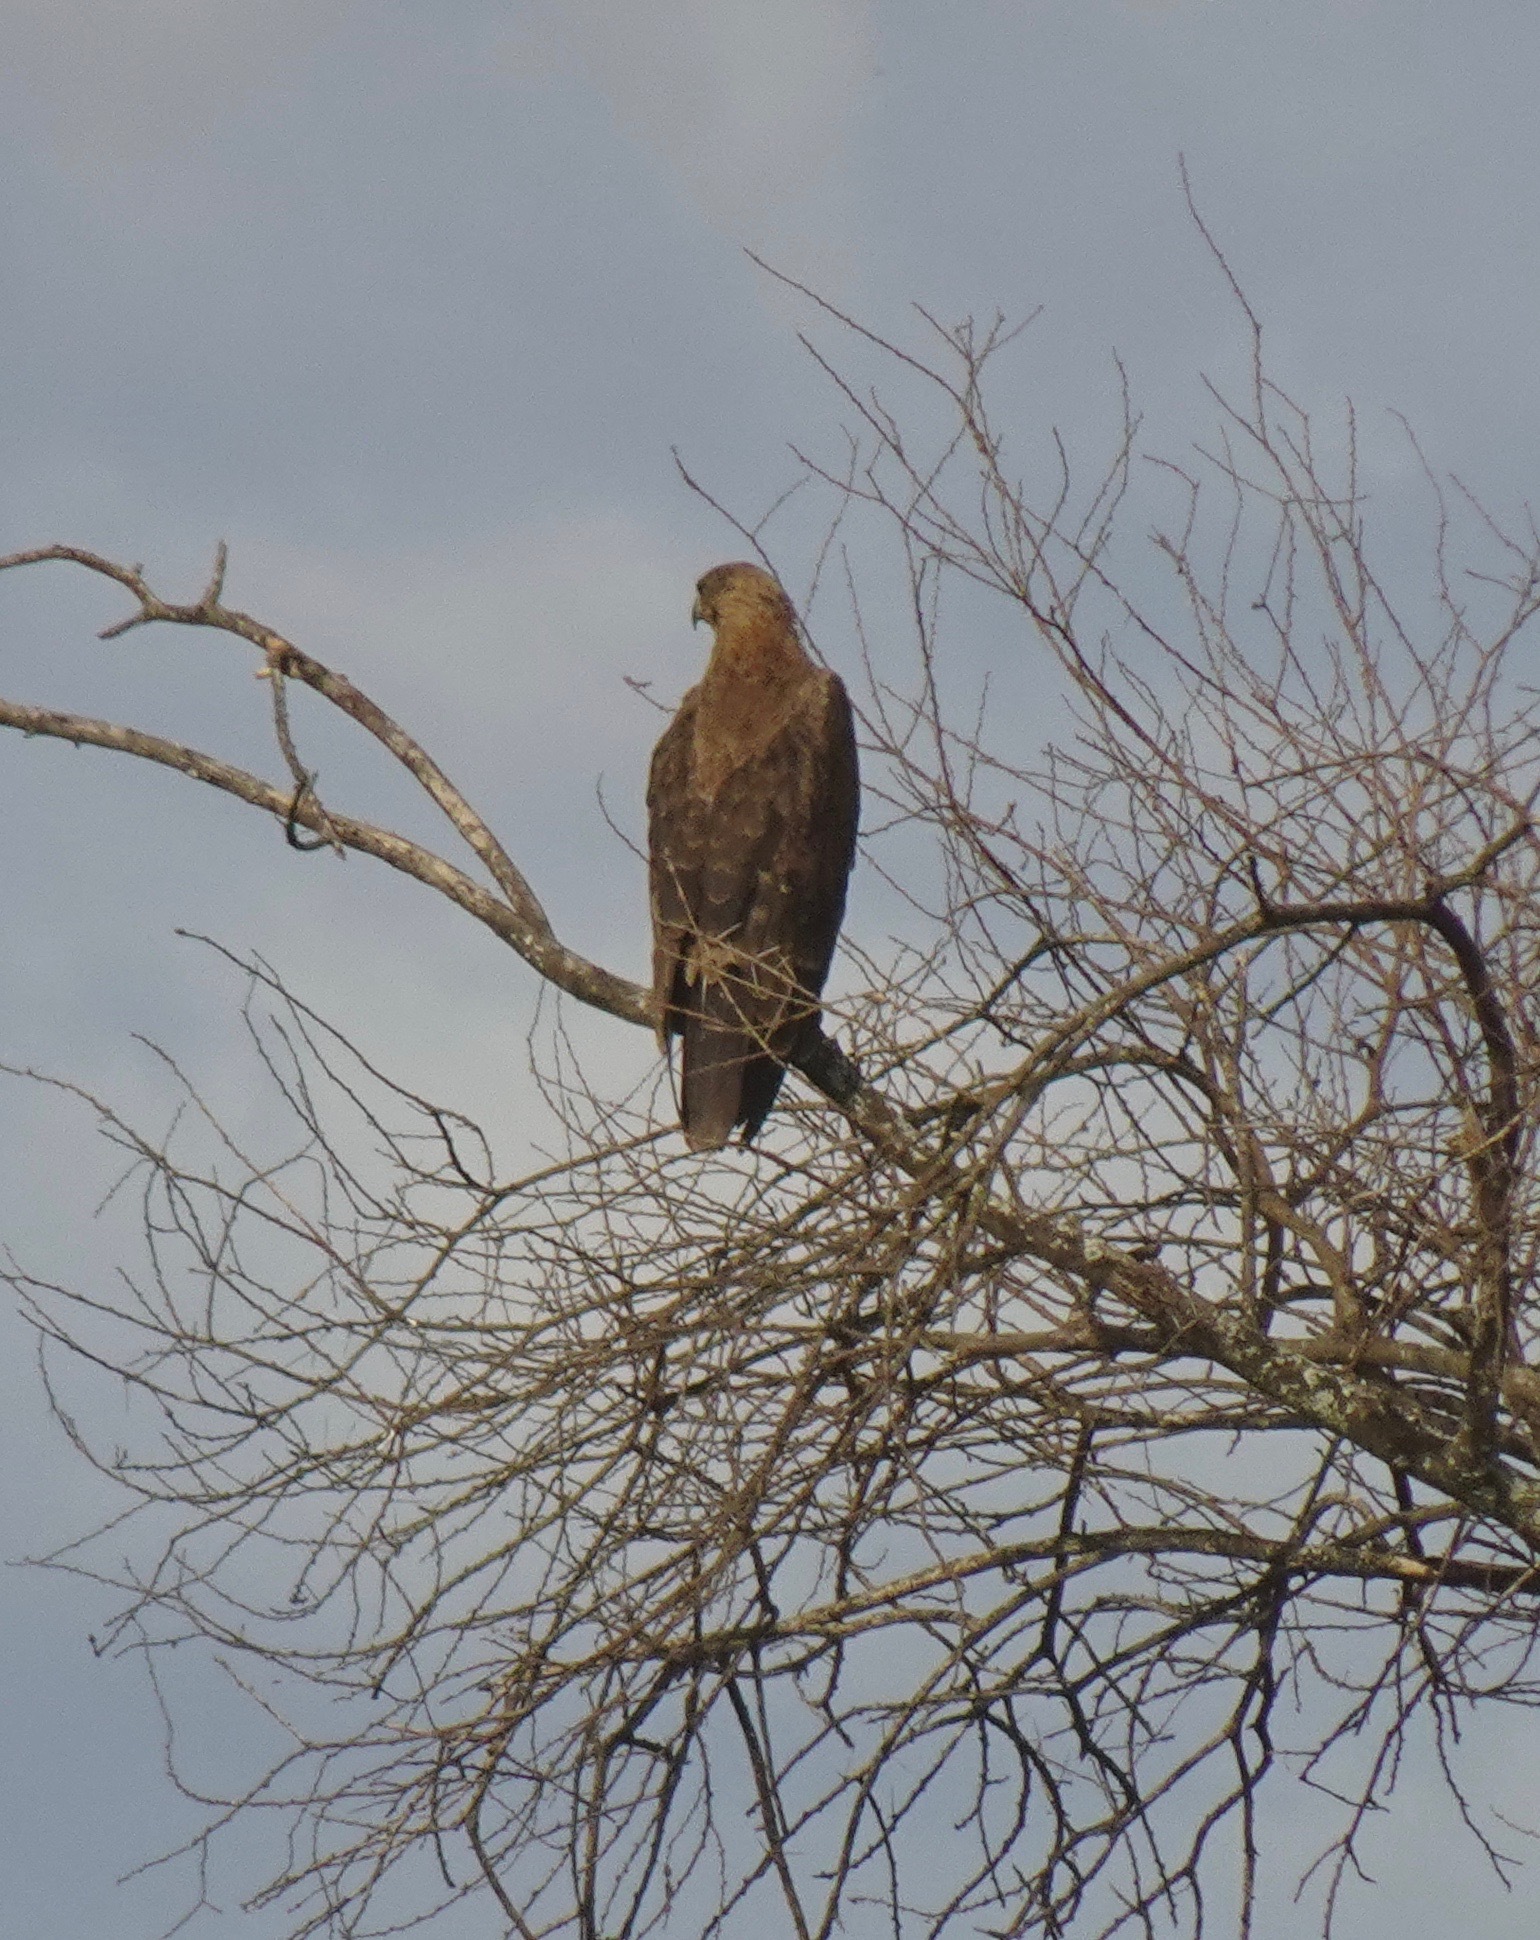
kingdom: Animalia
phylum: Chordata
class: Aves
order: Accipitriformes
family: Accipitridae
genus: Aquila
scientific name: Aquila rapax
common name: Tawny eagle
